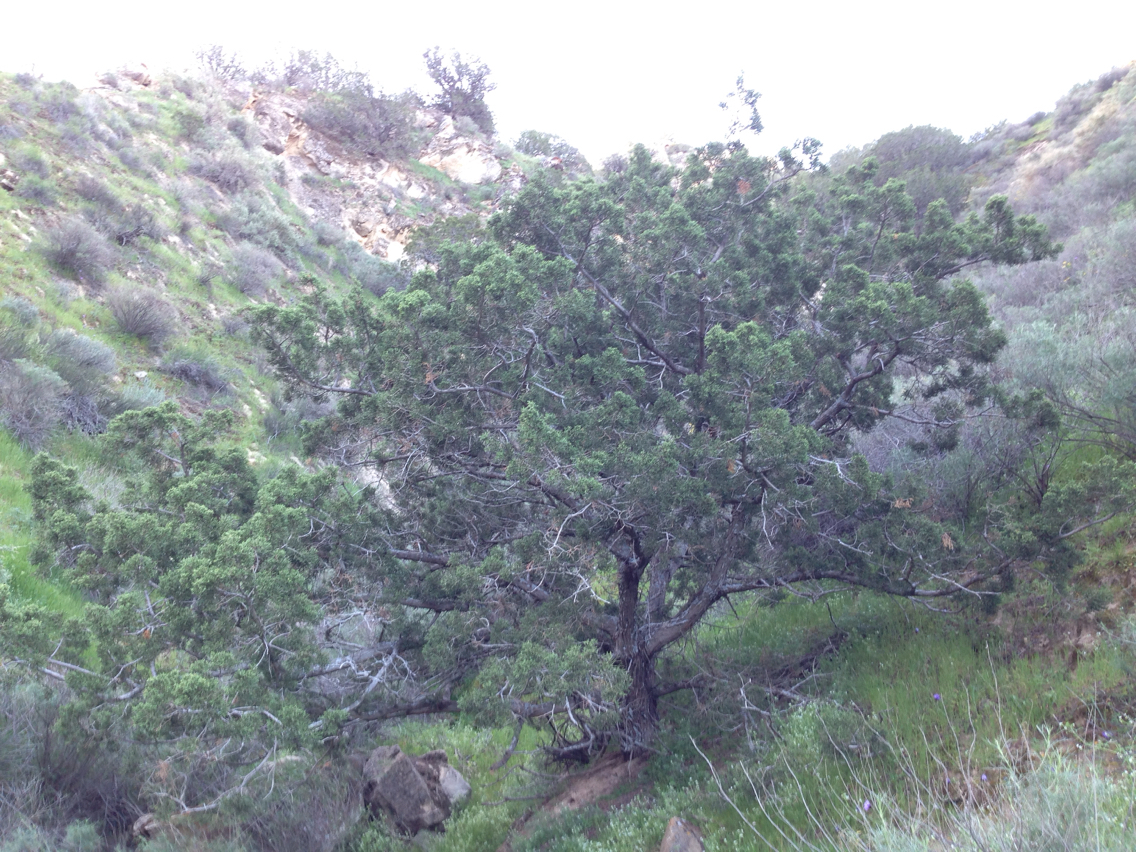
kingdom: Plantae
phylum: Tracheophyta
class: Pinopsida
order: Pinales
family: Cupressaceae
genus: Juniperus
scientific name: Juniperus californica
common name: California juniper
